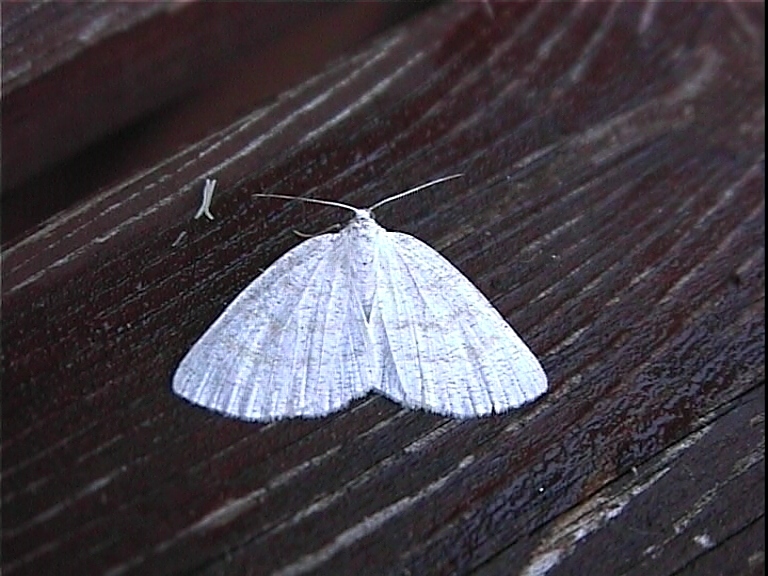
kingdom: Animalia
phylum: Arthropoda
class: Insecta
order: Lepidoptera
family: Geometridae
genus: Cabera
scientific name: Cabera exanthemata
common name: Common wave
